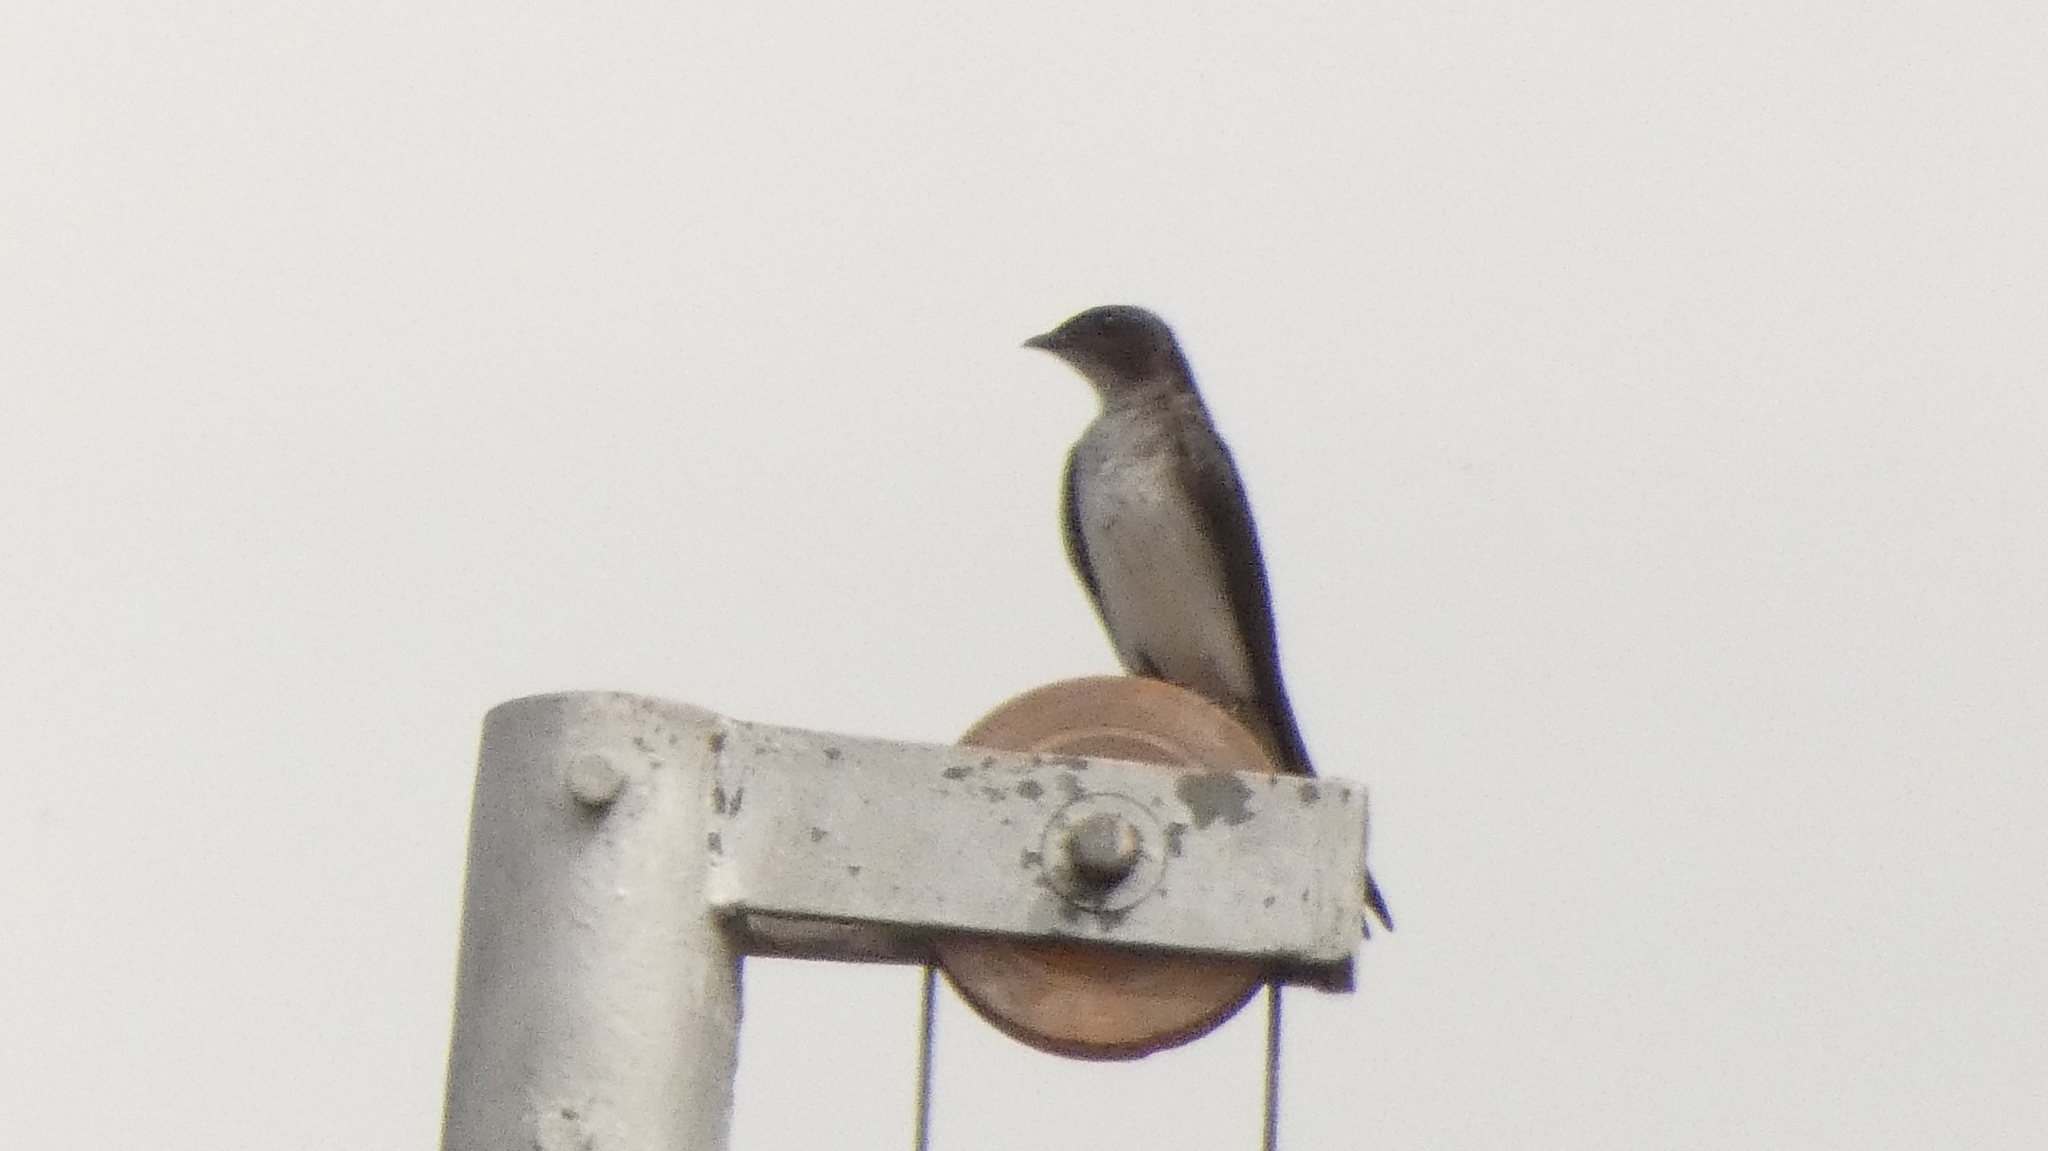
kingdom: Animalia
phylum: Chordata
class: Aves
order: Passeriformes
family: Hirundinidae
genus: Progne
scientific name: Progne chalybea
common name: Grey-breasted martin
